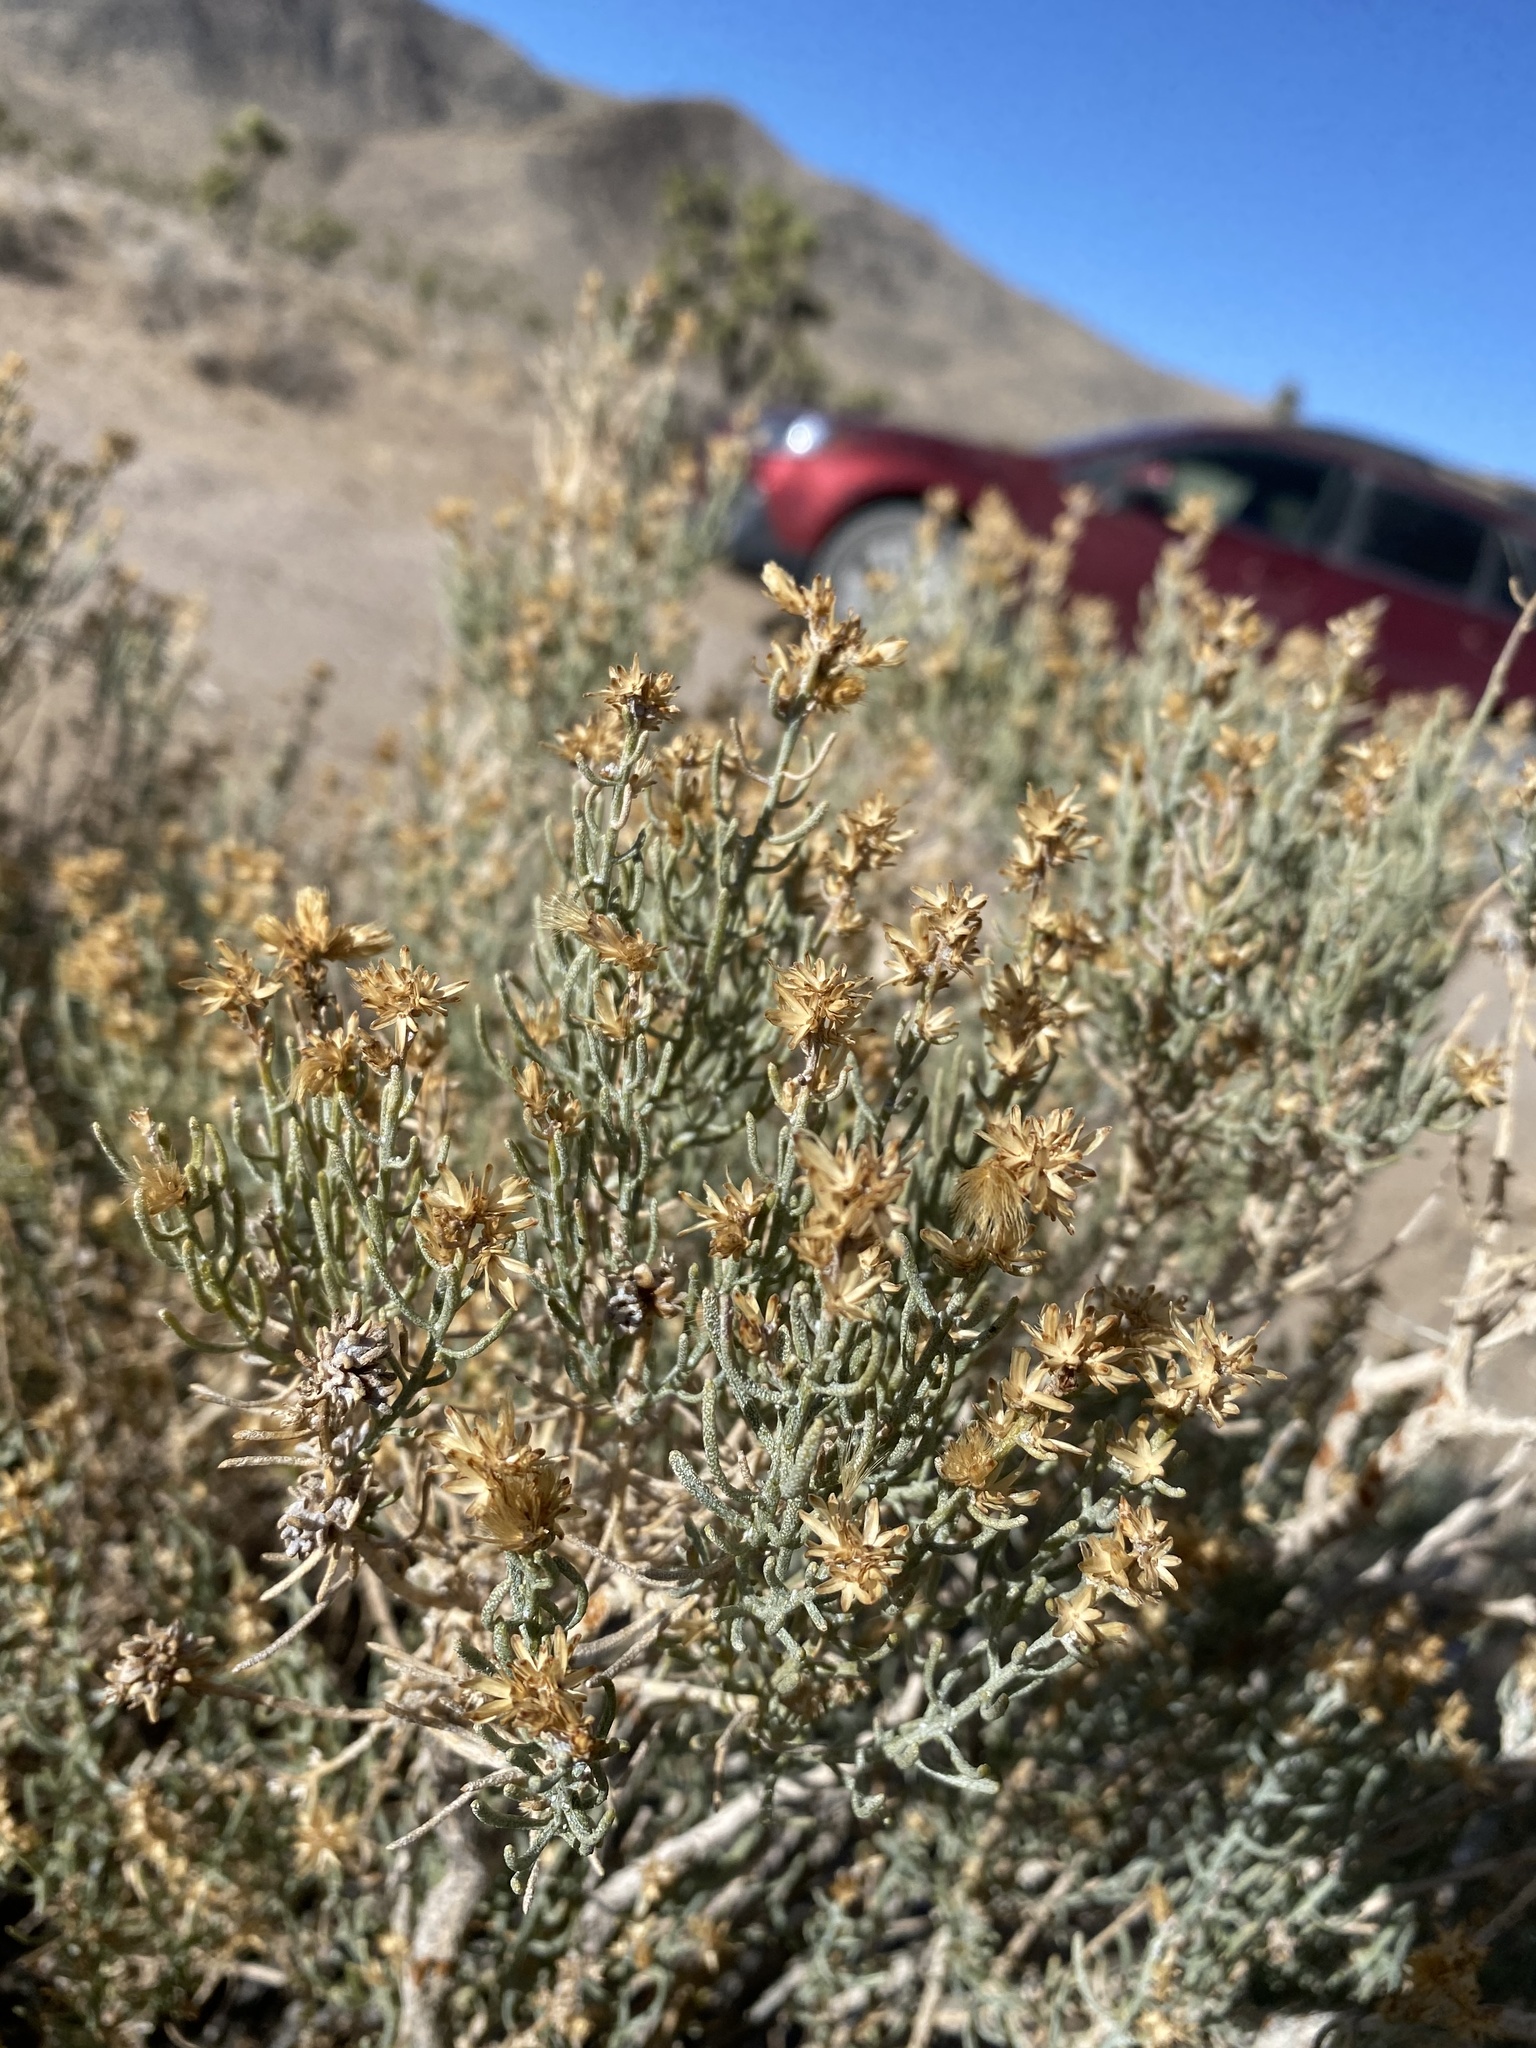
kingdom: Plantae
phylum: Tracheophyta
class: Magnoliopsida
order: Asterales
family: Asteraceae
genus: Ericameria
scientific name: Ericameria teretifolia
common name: Round-leaf rabbitbrush
